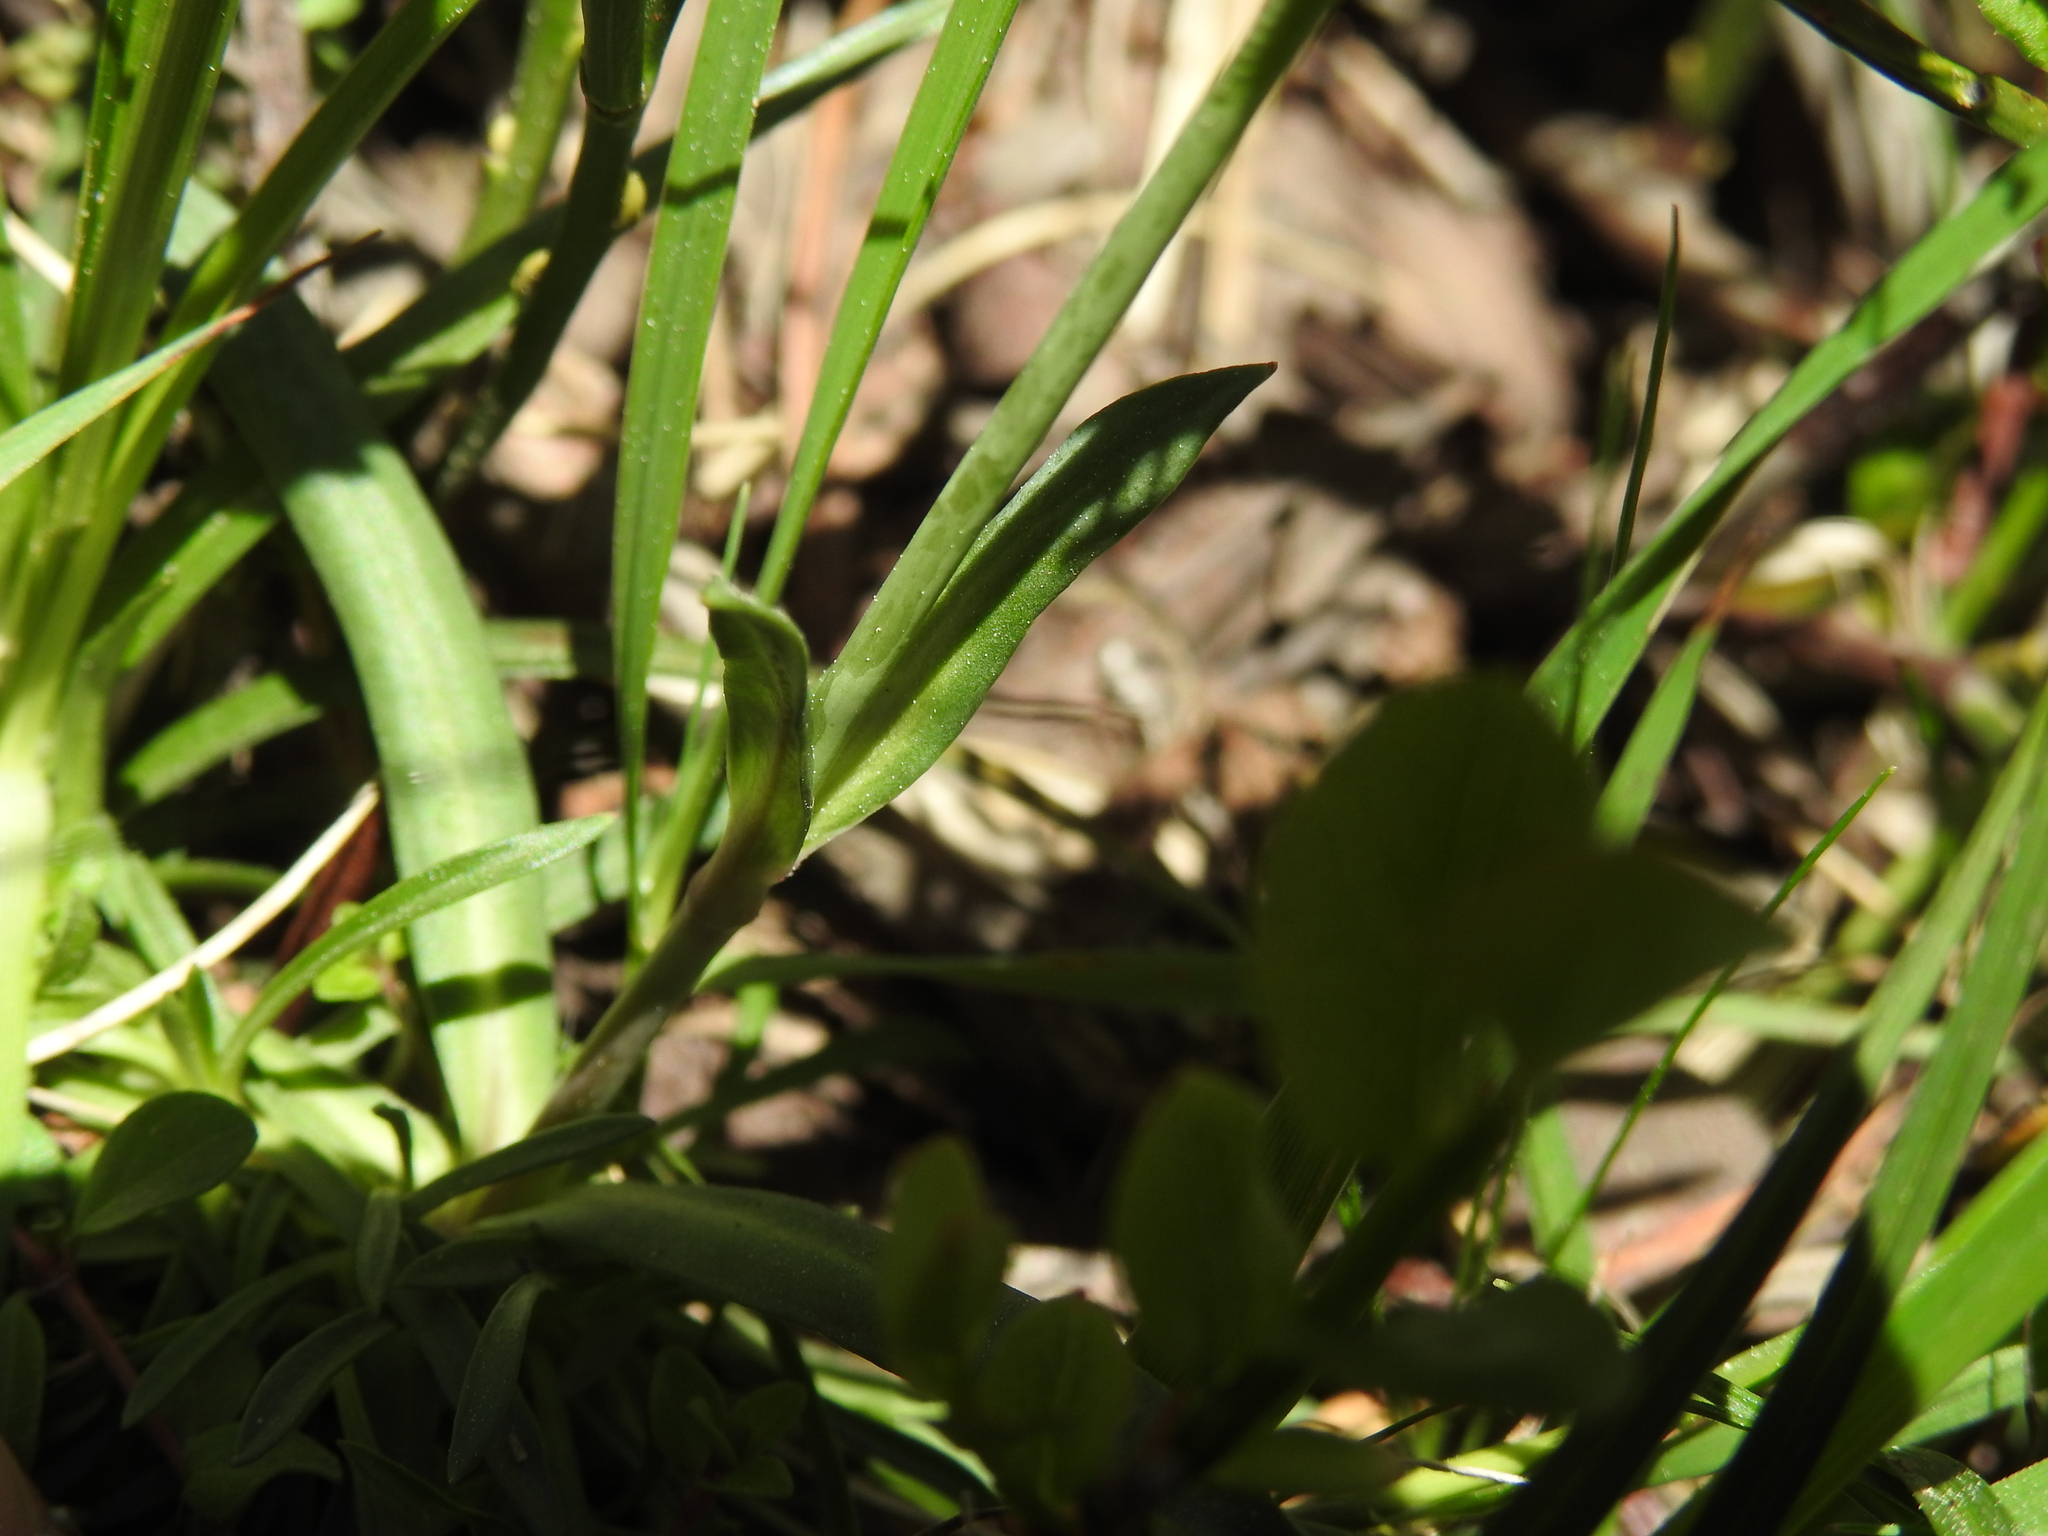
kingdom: Plantae
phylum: Tracheophyta
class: Magnoliopsida
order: Caryophyllales
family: Caryophyllaceae
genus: Viscaria
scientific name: Viscaria alpina
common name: Alpine campion
